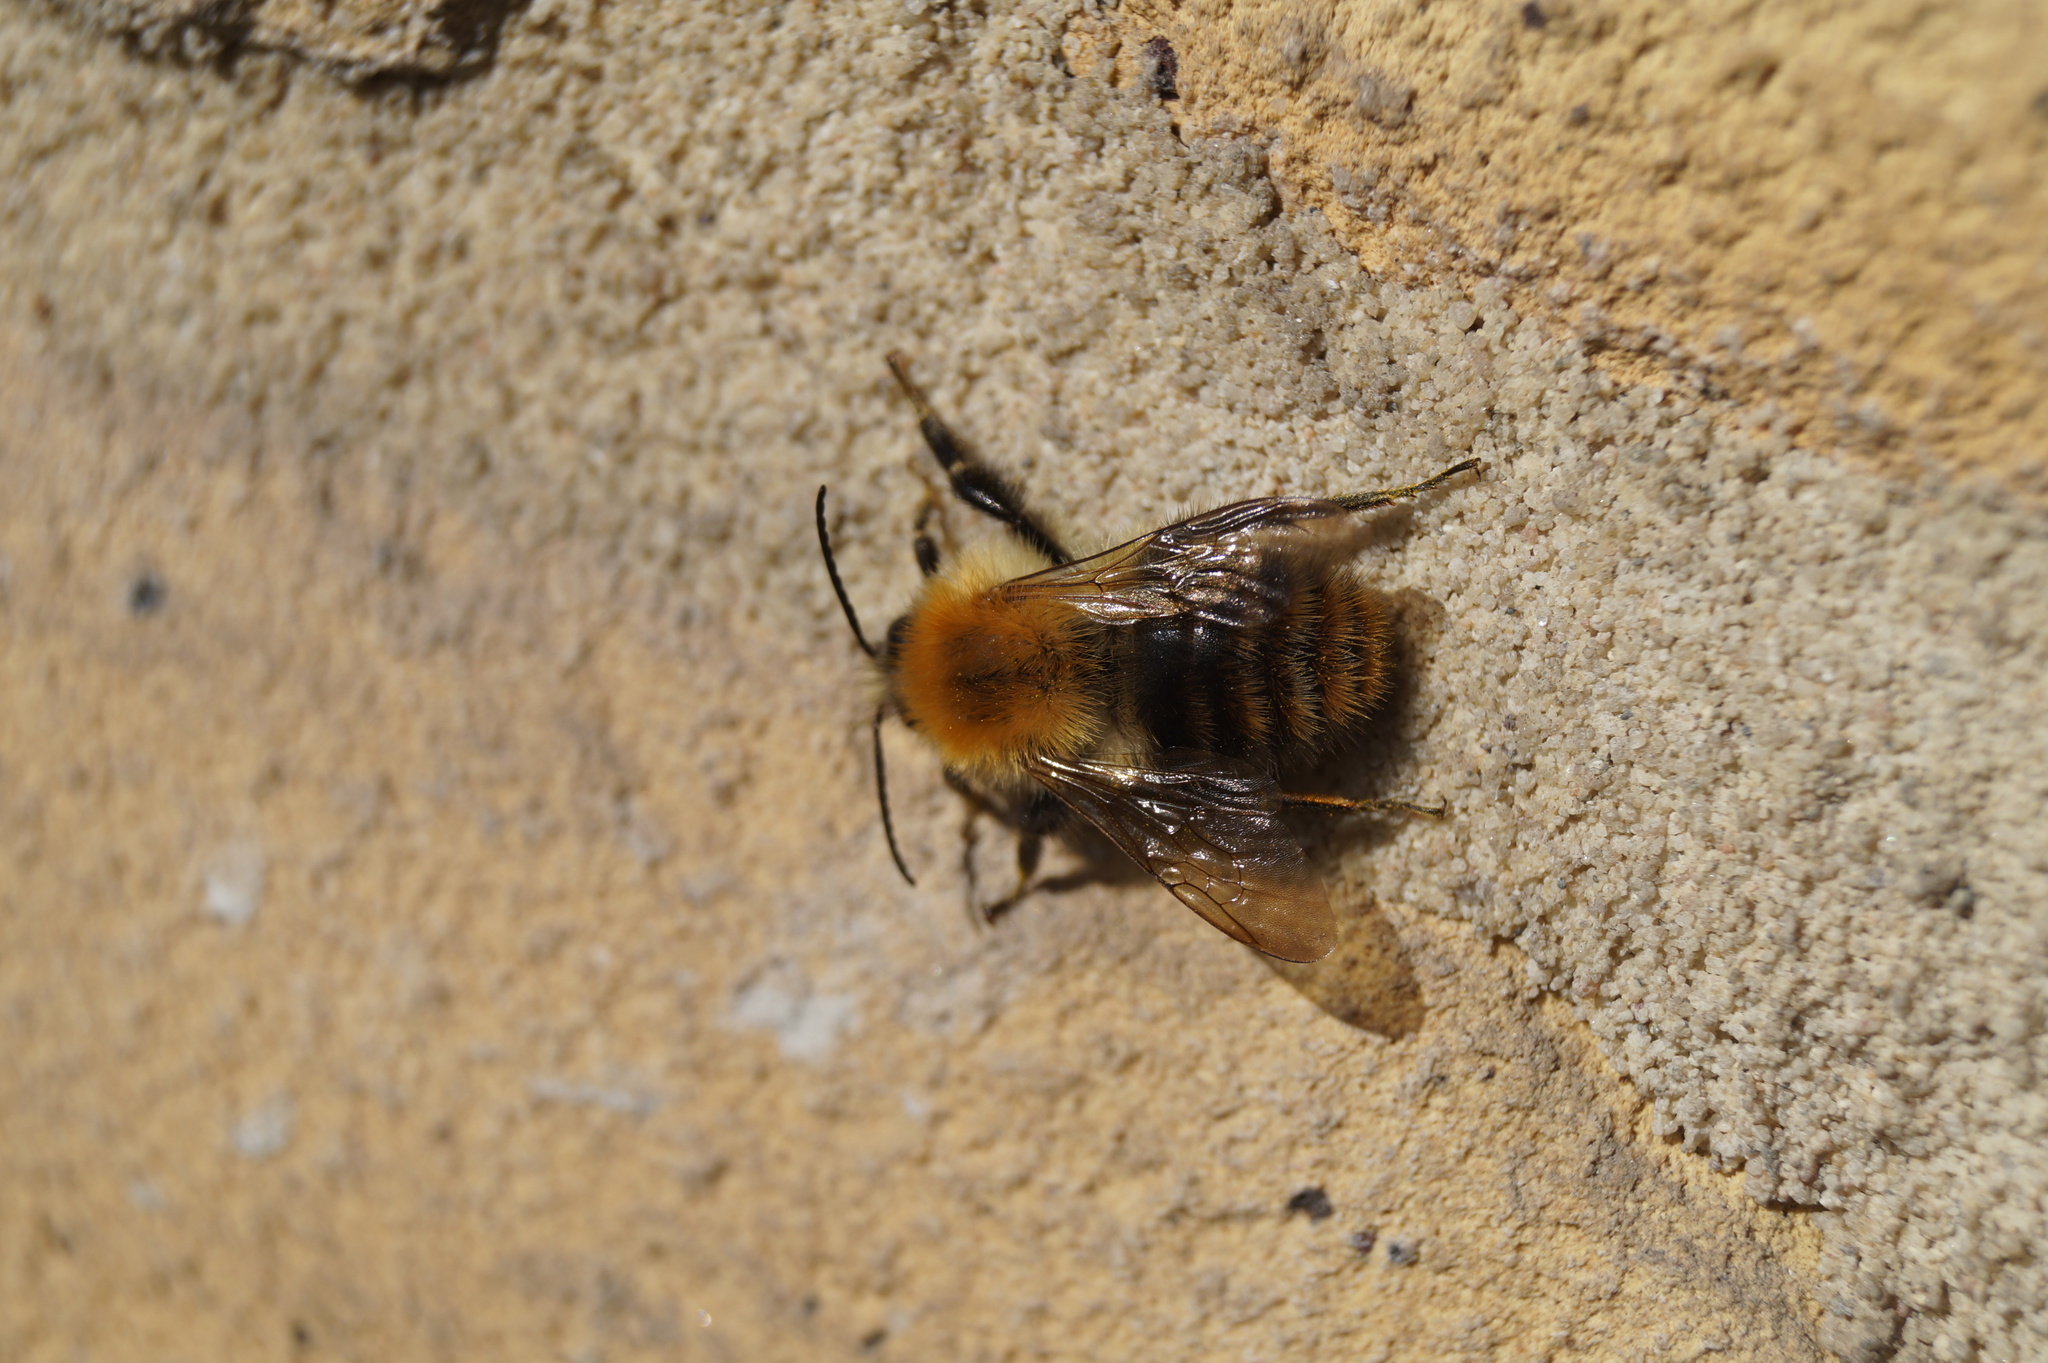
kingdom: Animalia
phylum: Arthropoda
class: Insecta
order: Hymenoptera
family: Apidae
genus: Bombus
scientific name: Bombus pascuorum
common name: Common carder bee
